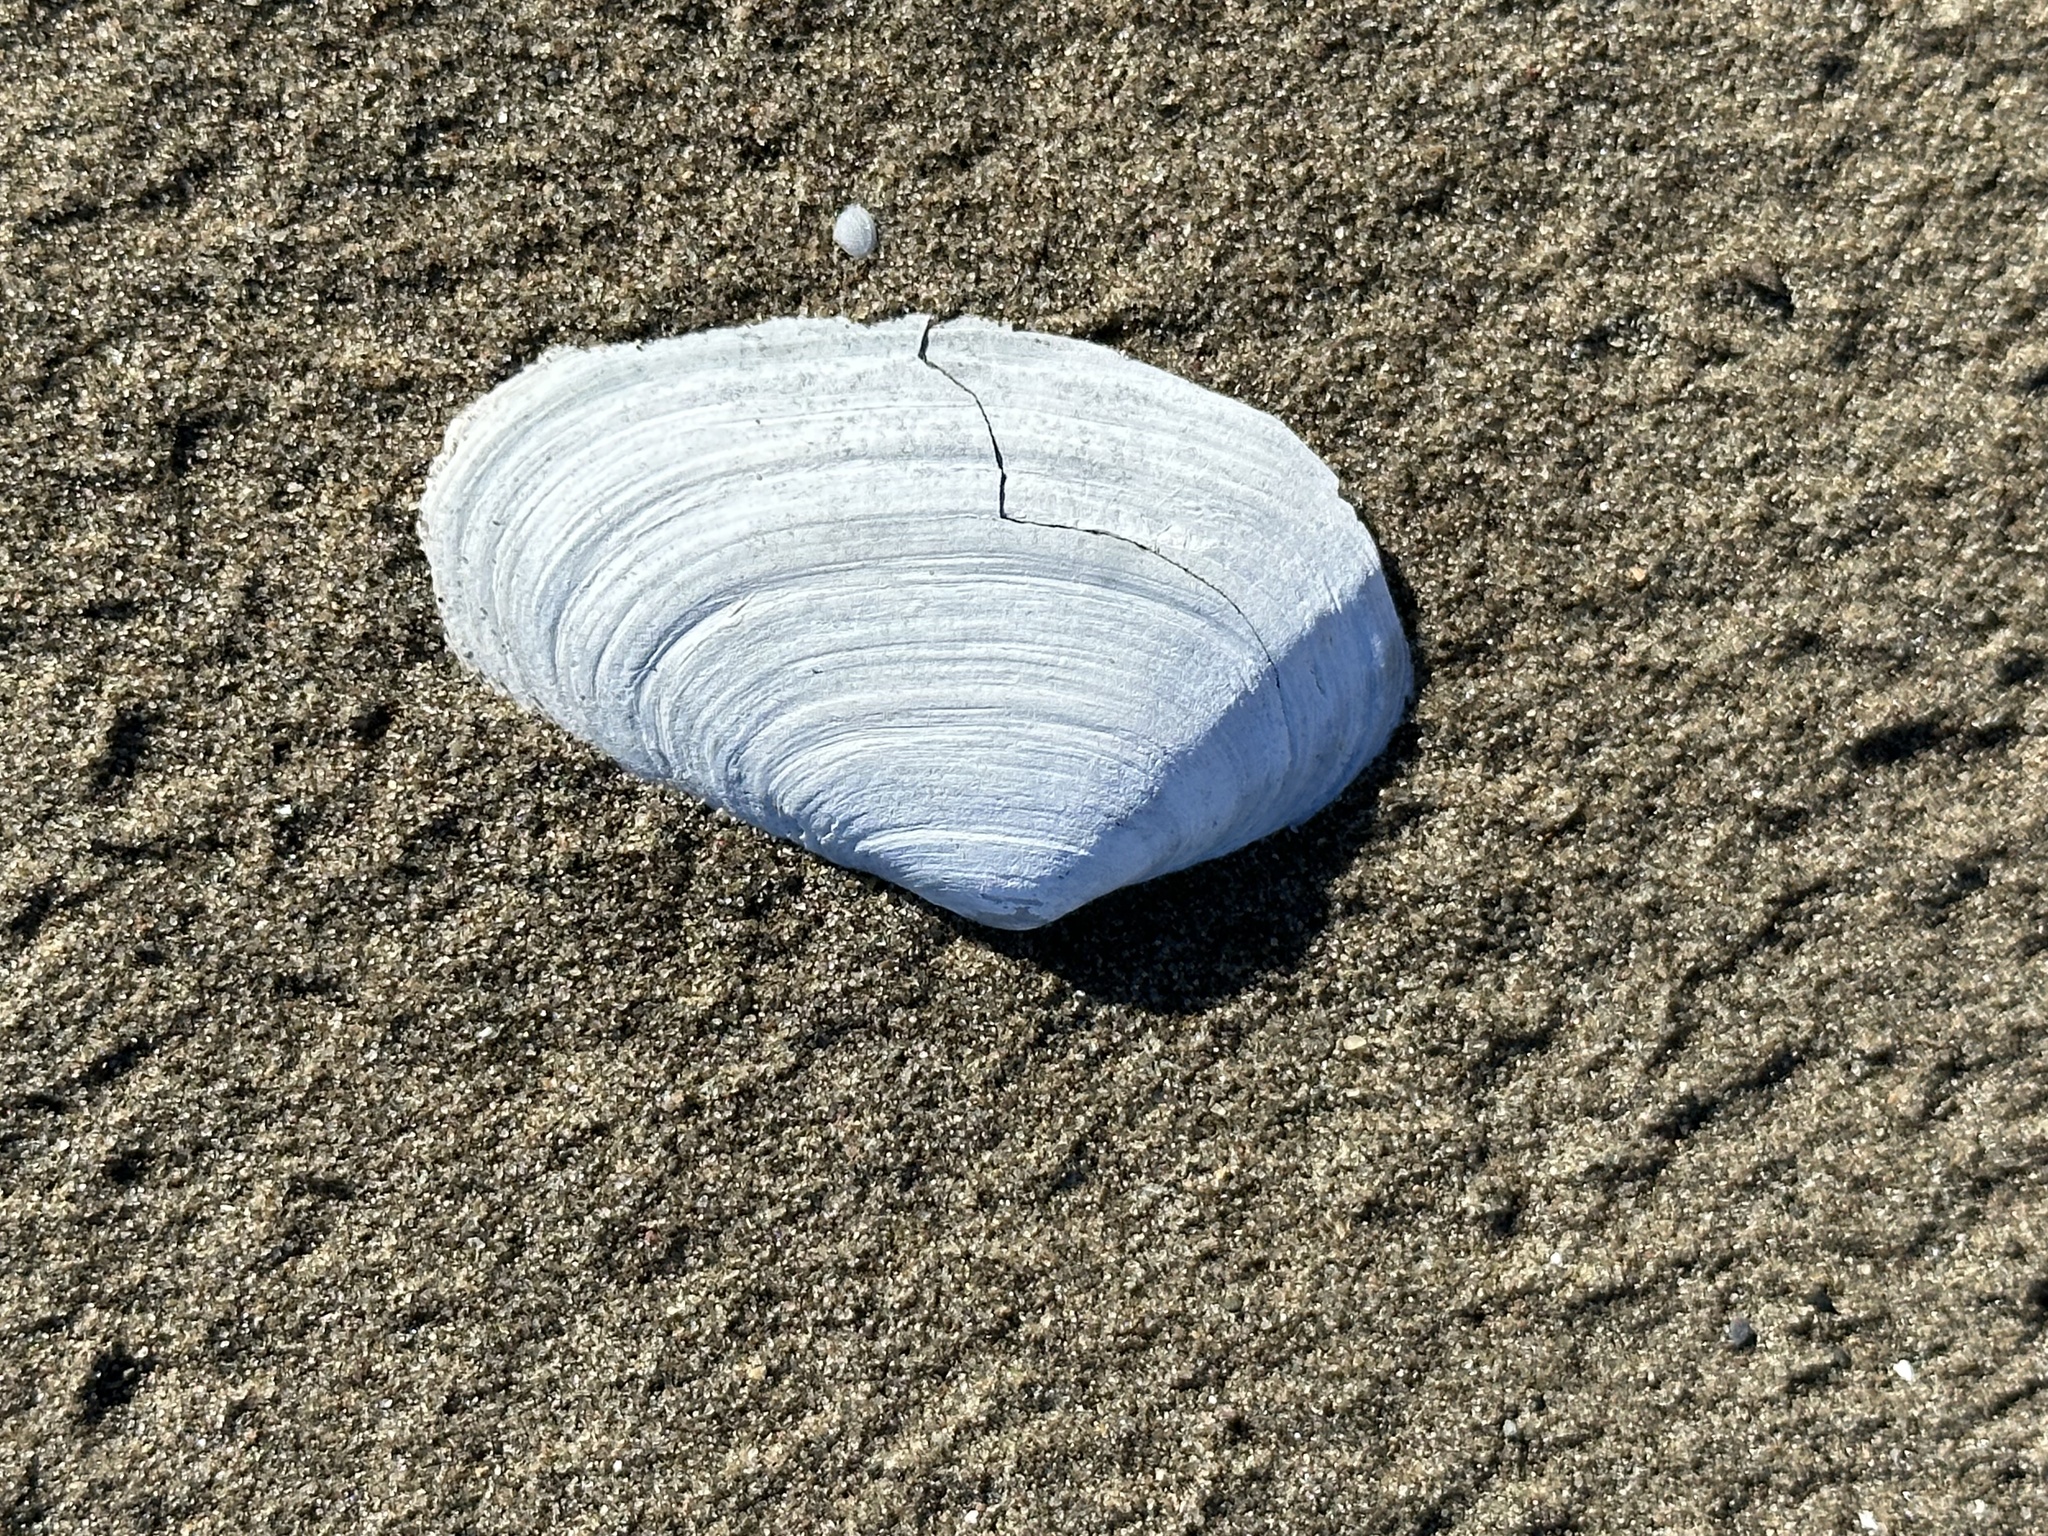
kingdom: Animalia
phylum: Mollusca
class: Bivalvia
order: Myida
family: Myidae
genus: Mya
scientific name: Mya arenaria
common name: Soft-shelled clam
